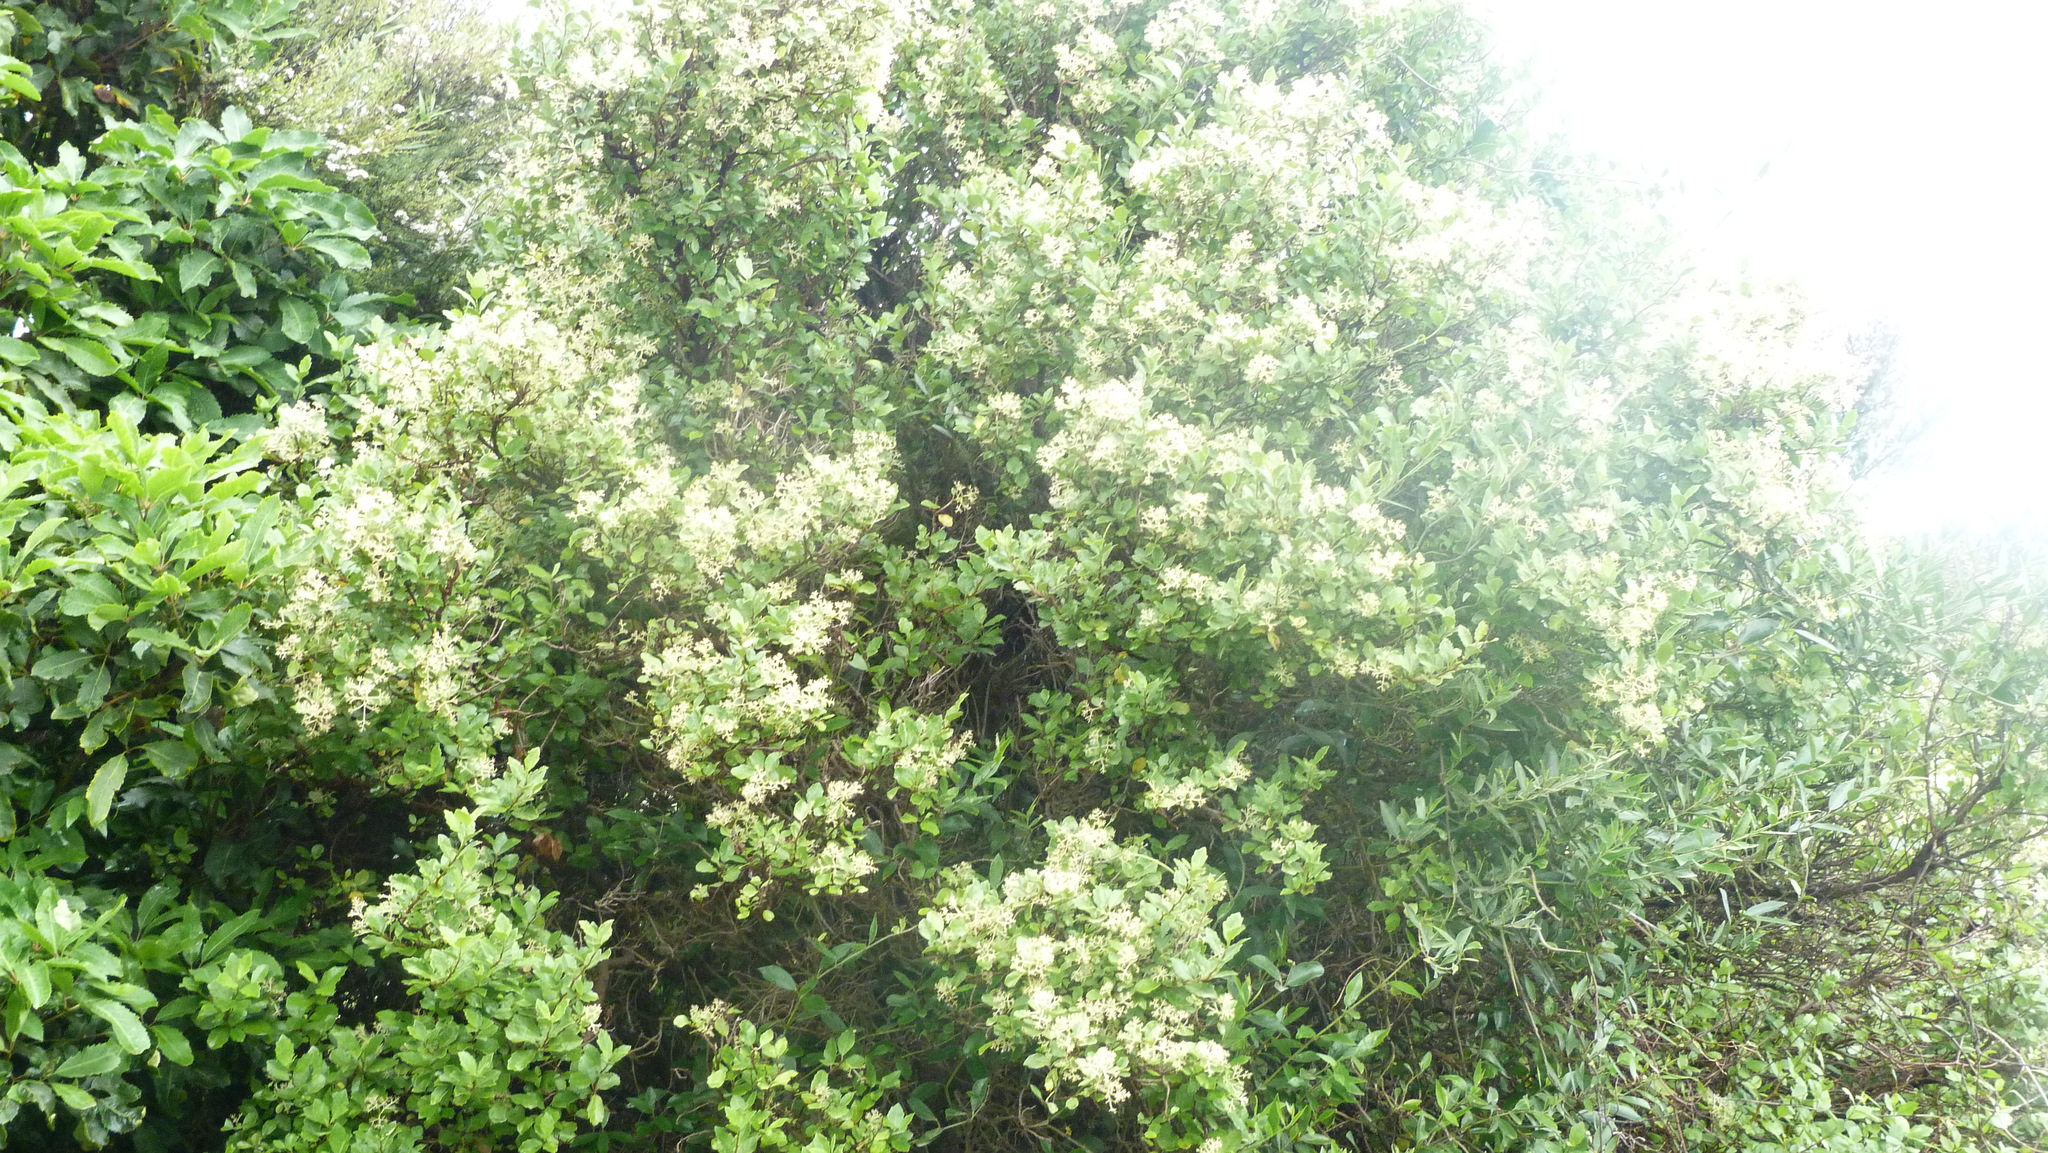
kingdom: Plantae
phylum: Tracheophyta
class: Magnoliopsida
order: Apiales
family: Pennantiaceae
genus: Pennantia
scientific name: Pennantia corymbosa
